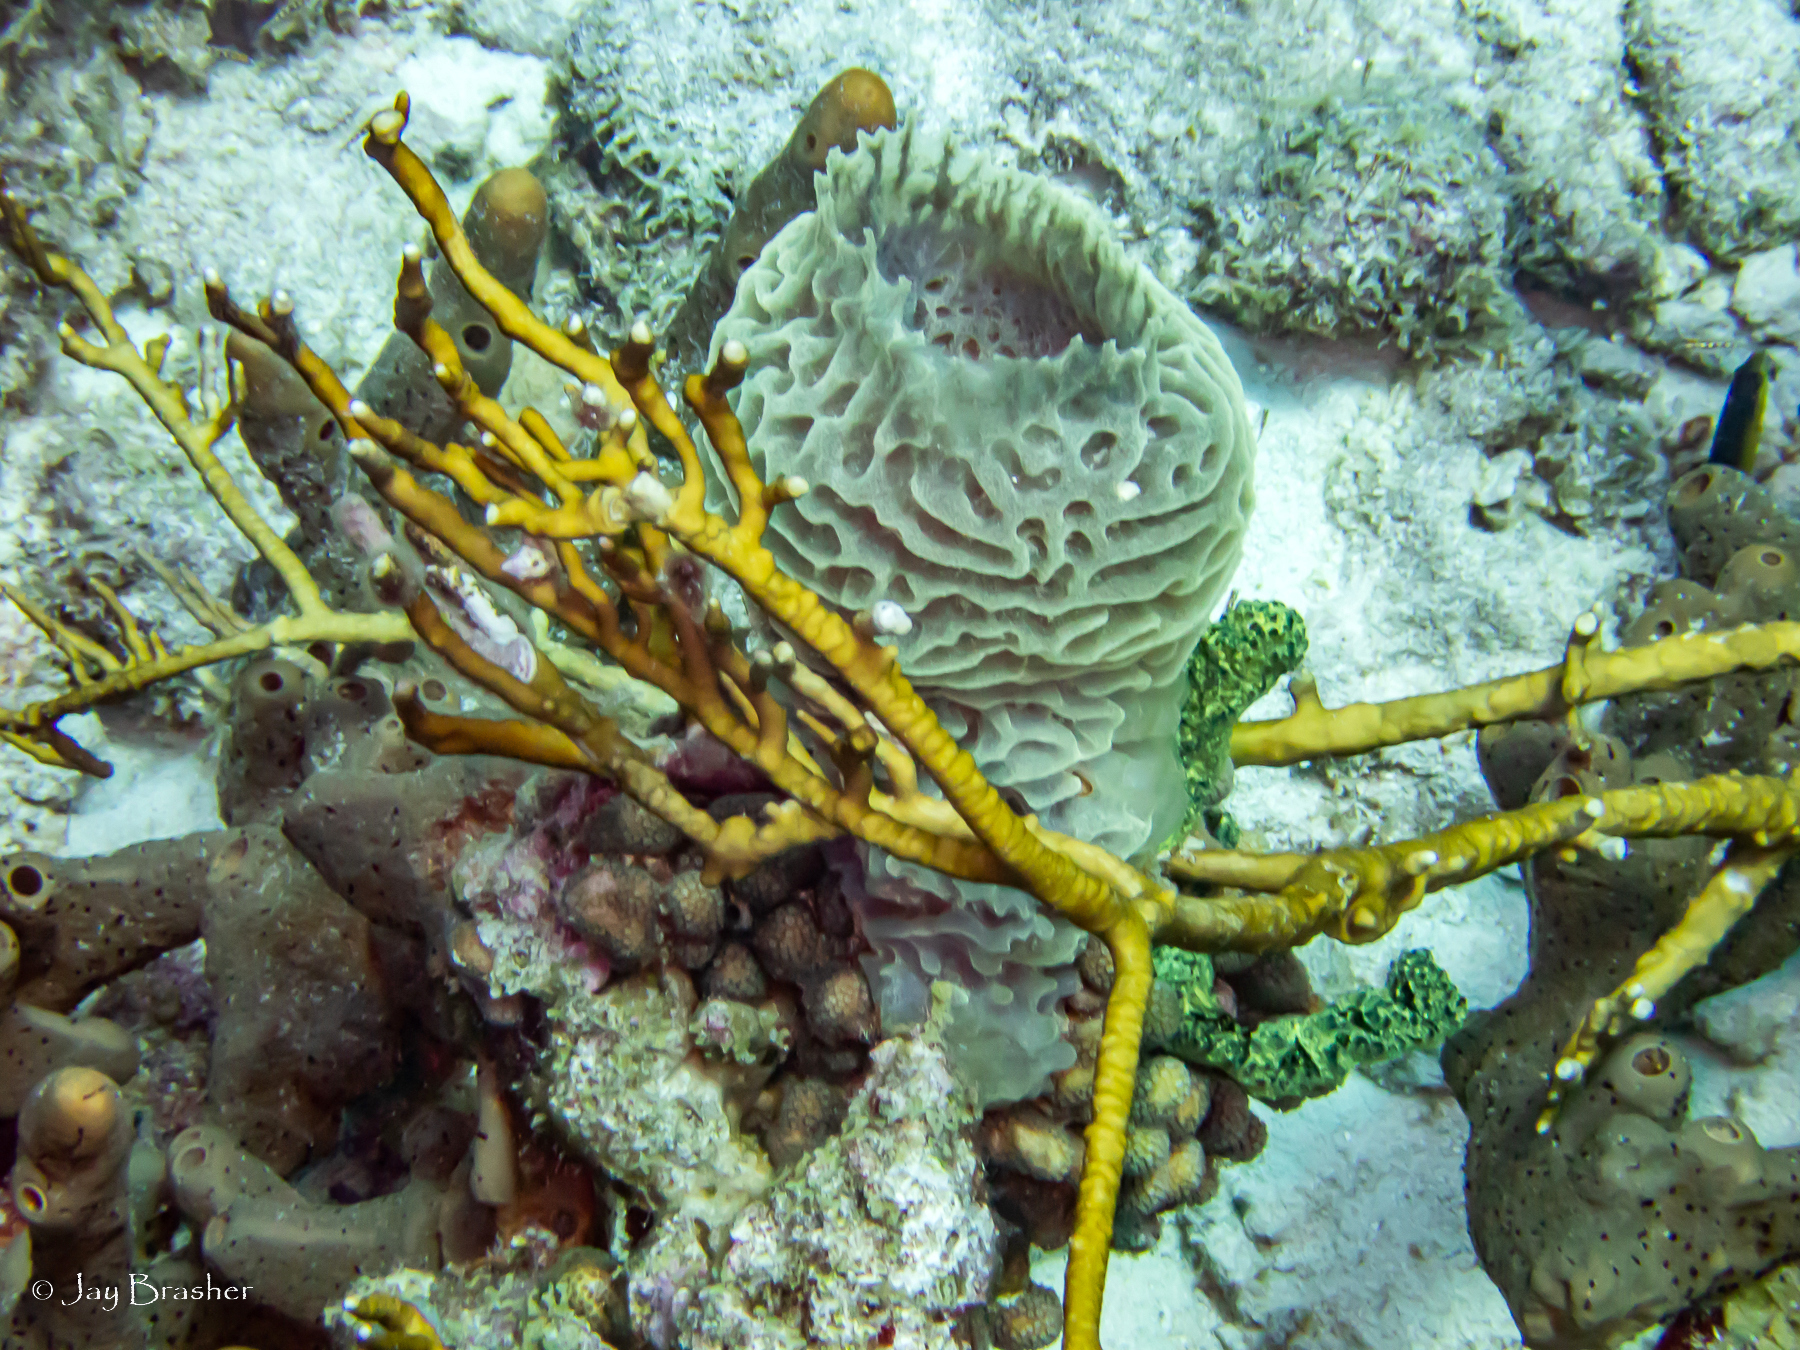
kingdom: Animalia
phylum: Porifera
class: Demospongiae
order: Haplosclerida
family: Callyspongiidae
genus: Callyspongia
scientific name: Callyspongia plicifera
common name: Azure vase sponge
